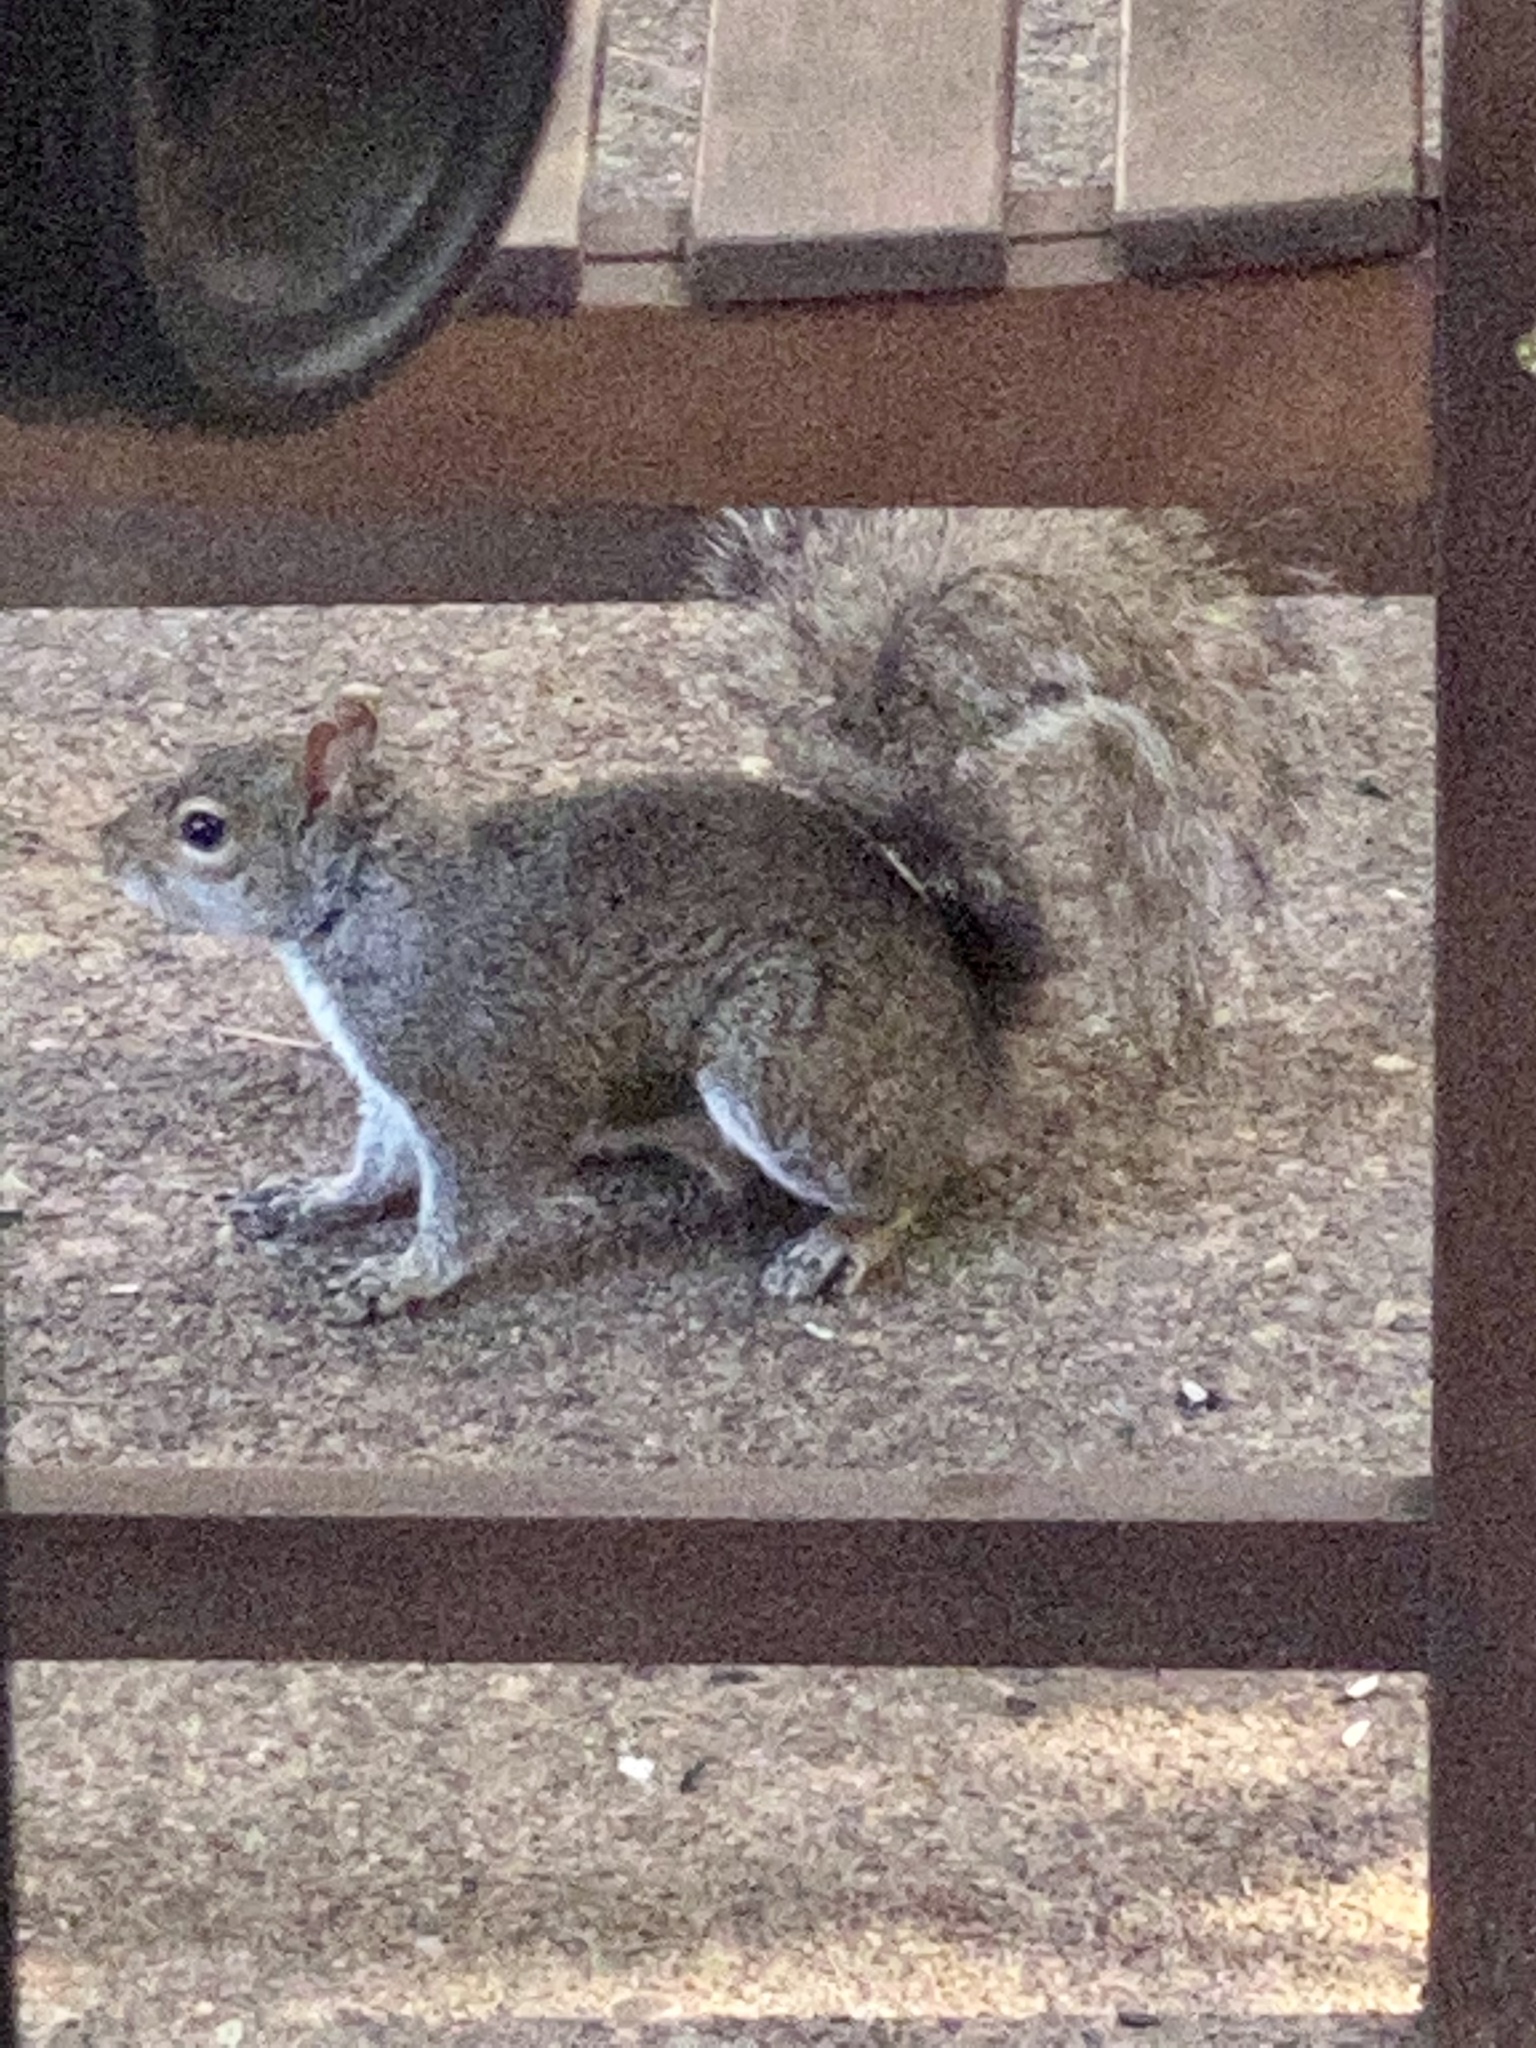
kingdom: Animalia
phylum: Chordata
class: Mammalia
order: Rodentia
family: Sciuridae
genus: Sciurus
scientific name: Sciurus carolinensis
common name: Eastern gray squirrel
